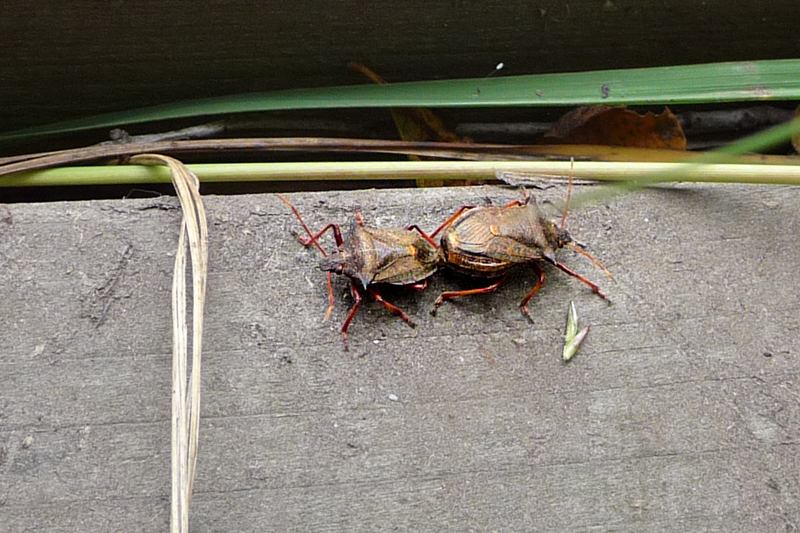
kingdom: Animalia
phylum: Arthropoda
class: Insecta
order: Hemiptera
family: Pentatomidae
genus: Picromerus
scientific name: Picromerus bidens
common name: Spiked shieldbug
